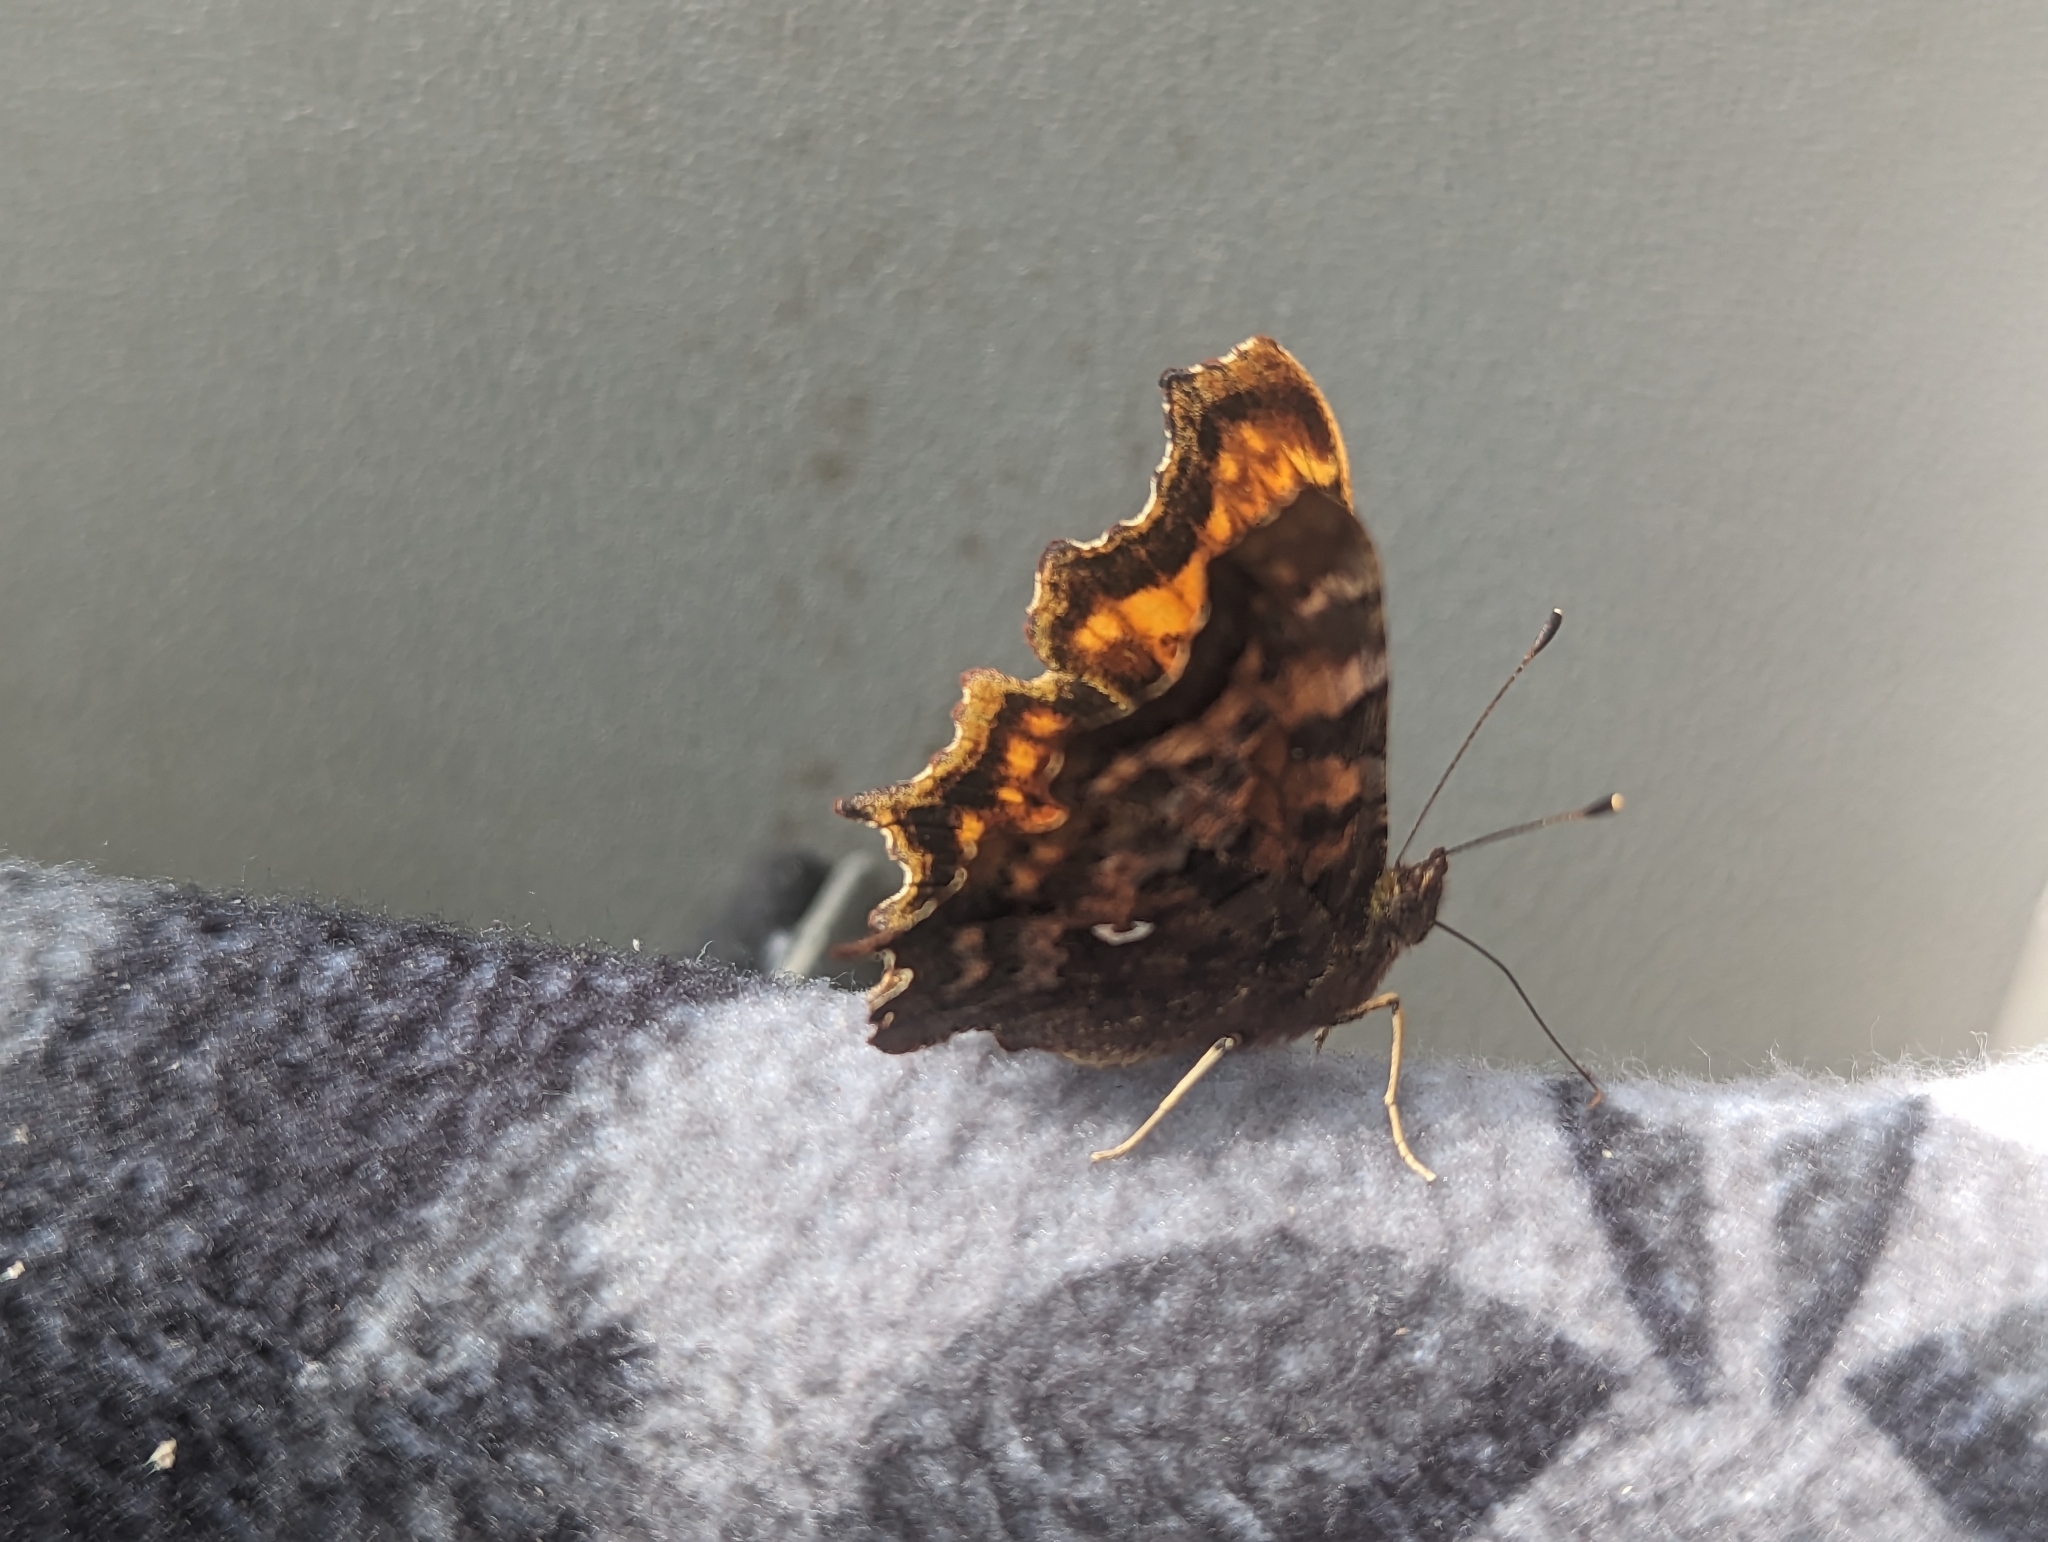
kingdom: Animalia
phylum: Arthropoda
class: Insecta
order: Lepidoptera
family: Nymphalidae
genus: Polygonia
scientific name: Polygonia c-album
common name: Comma
